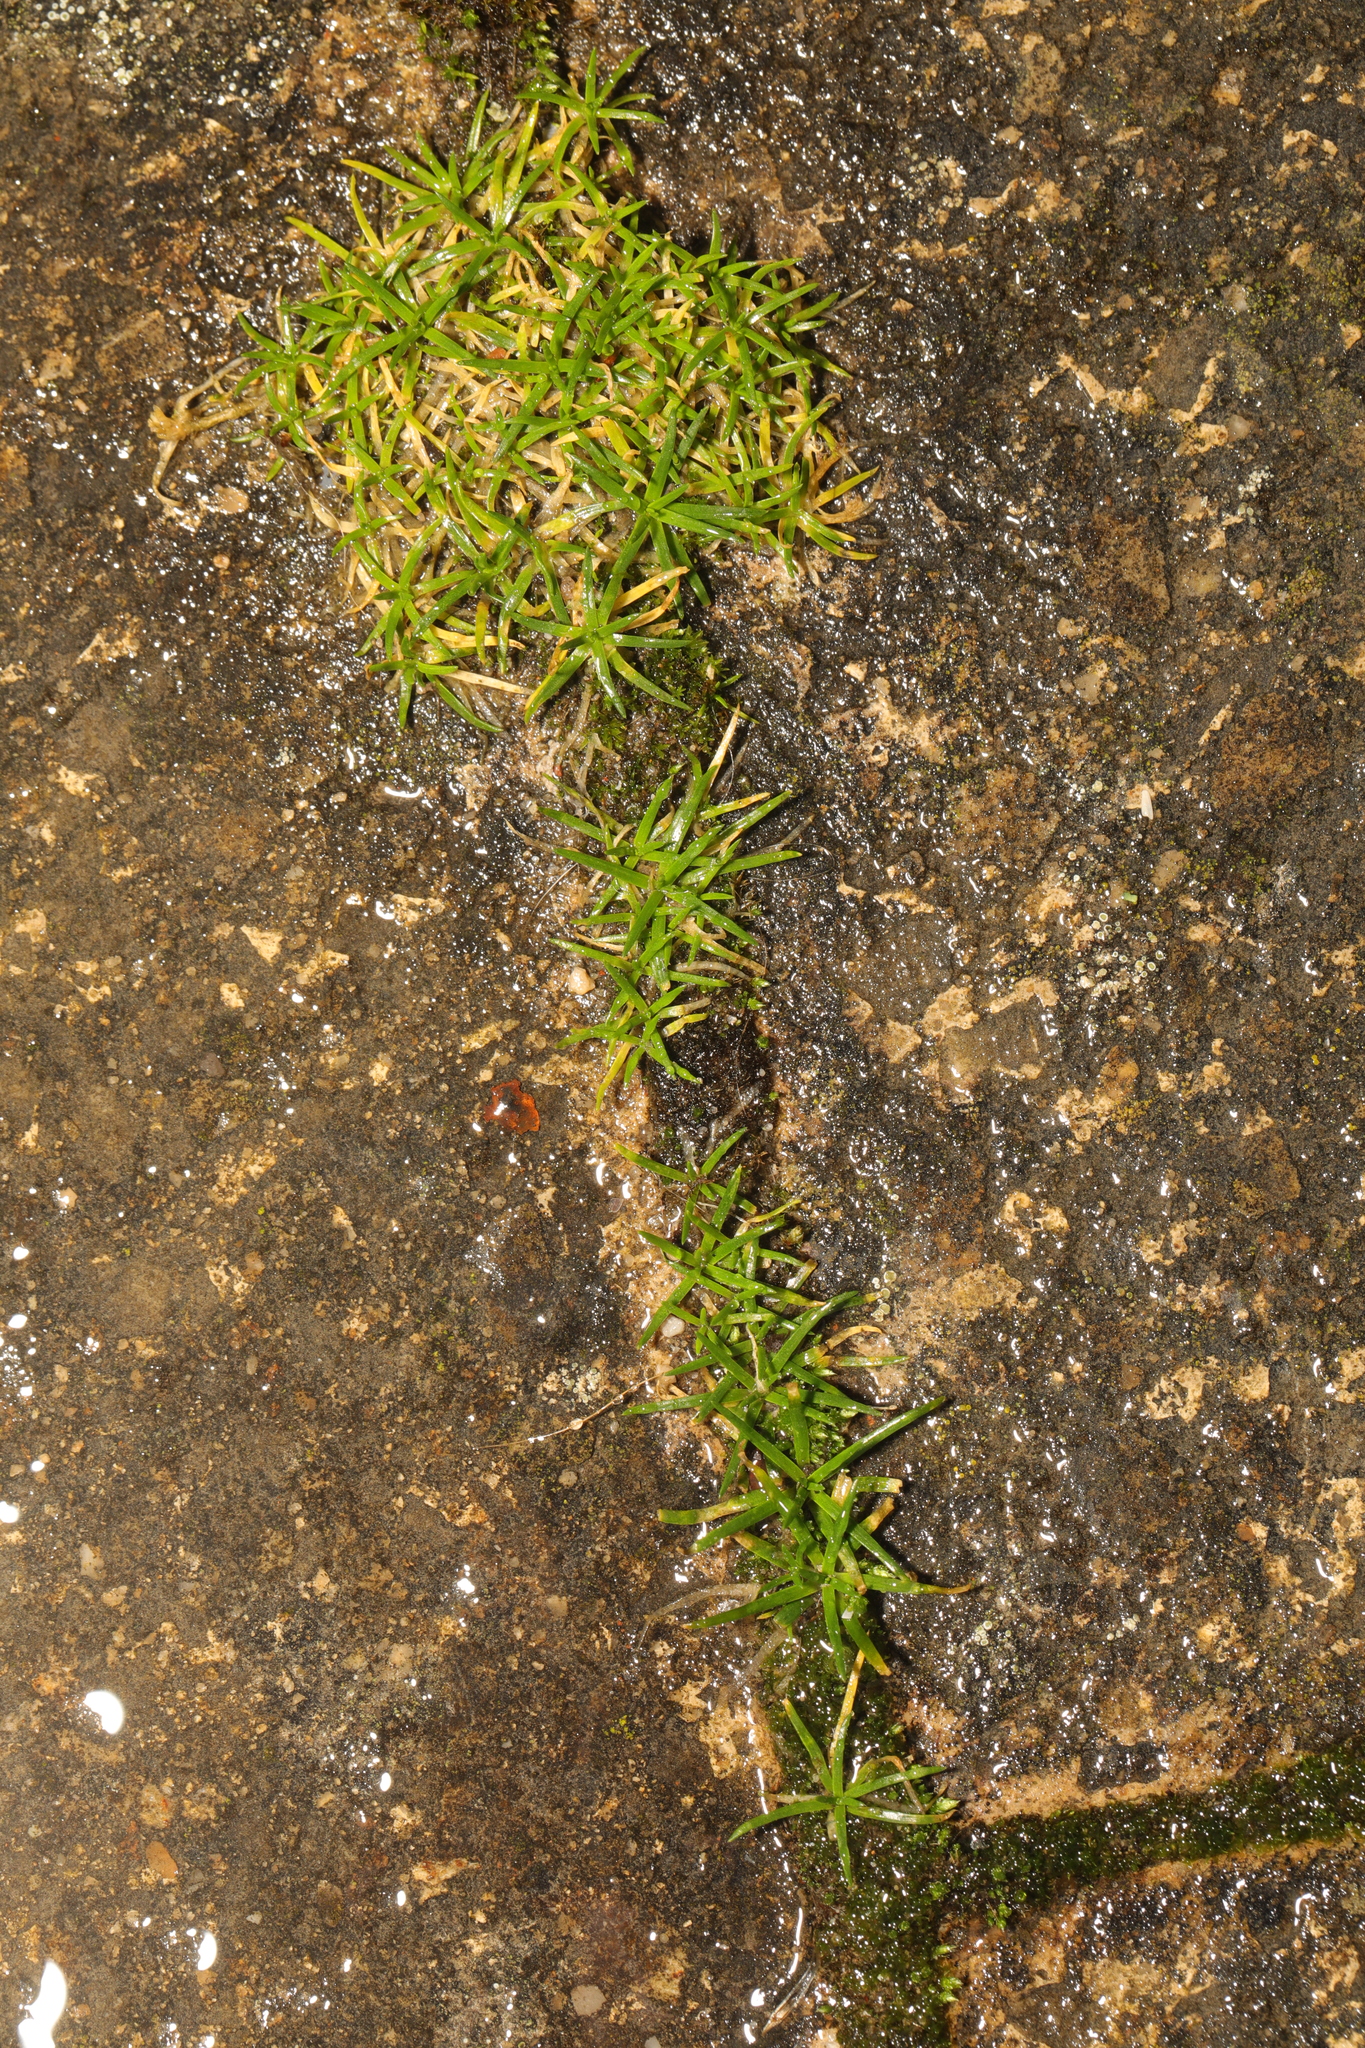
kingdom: Plantae
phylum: Tracheophyta
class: Magnoliopsida
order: Caryophyllales
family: Caryophyllaceae
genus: Sagina
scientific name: Sagina procumbens
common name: Procumbent pearlwort
